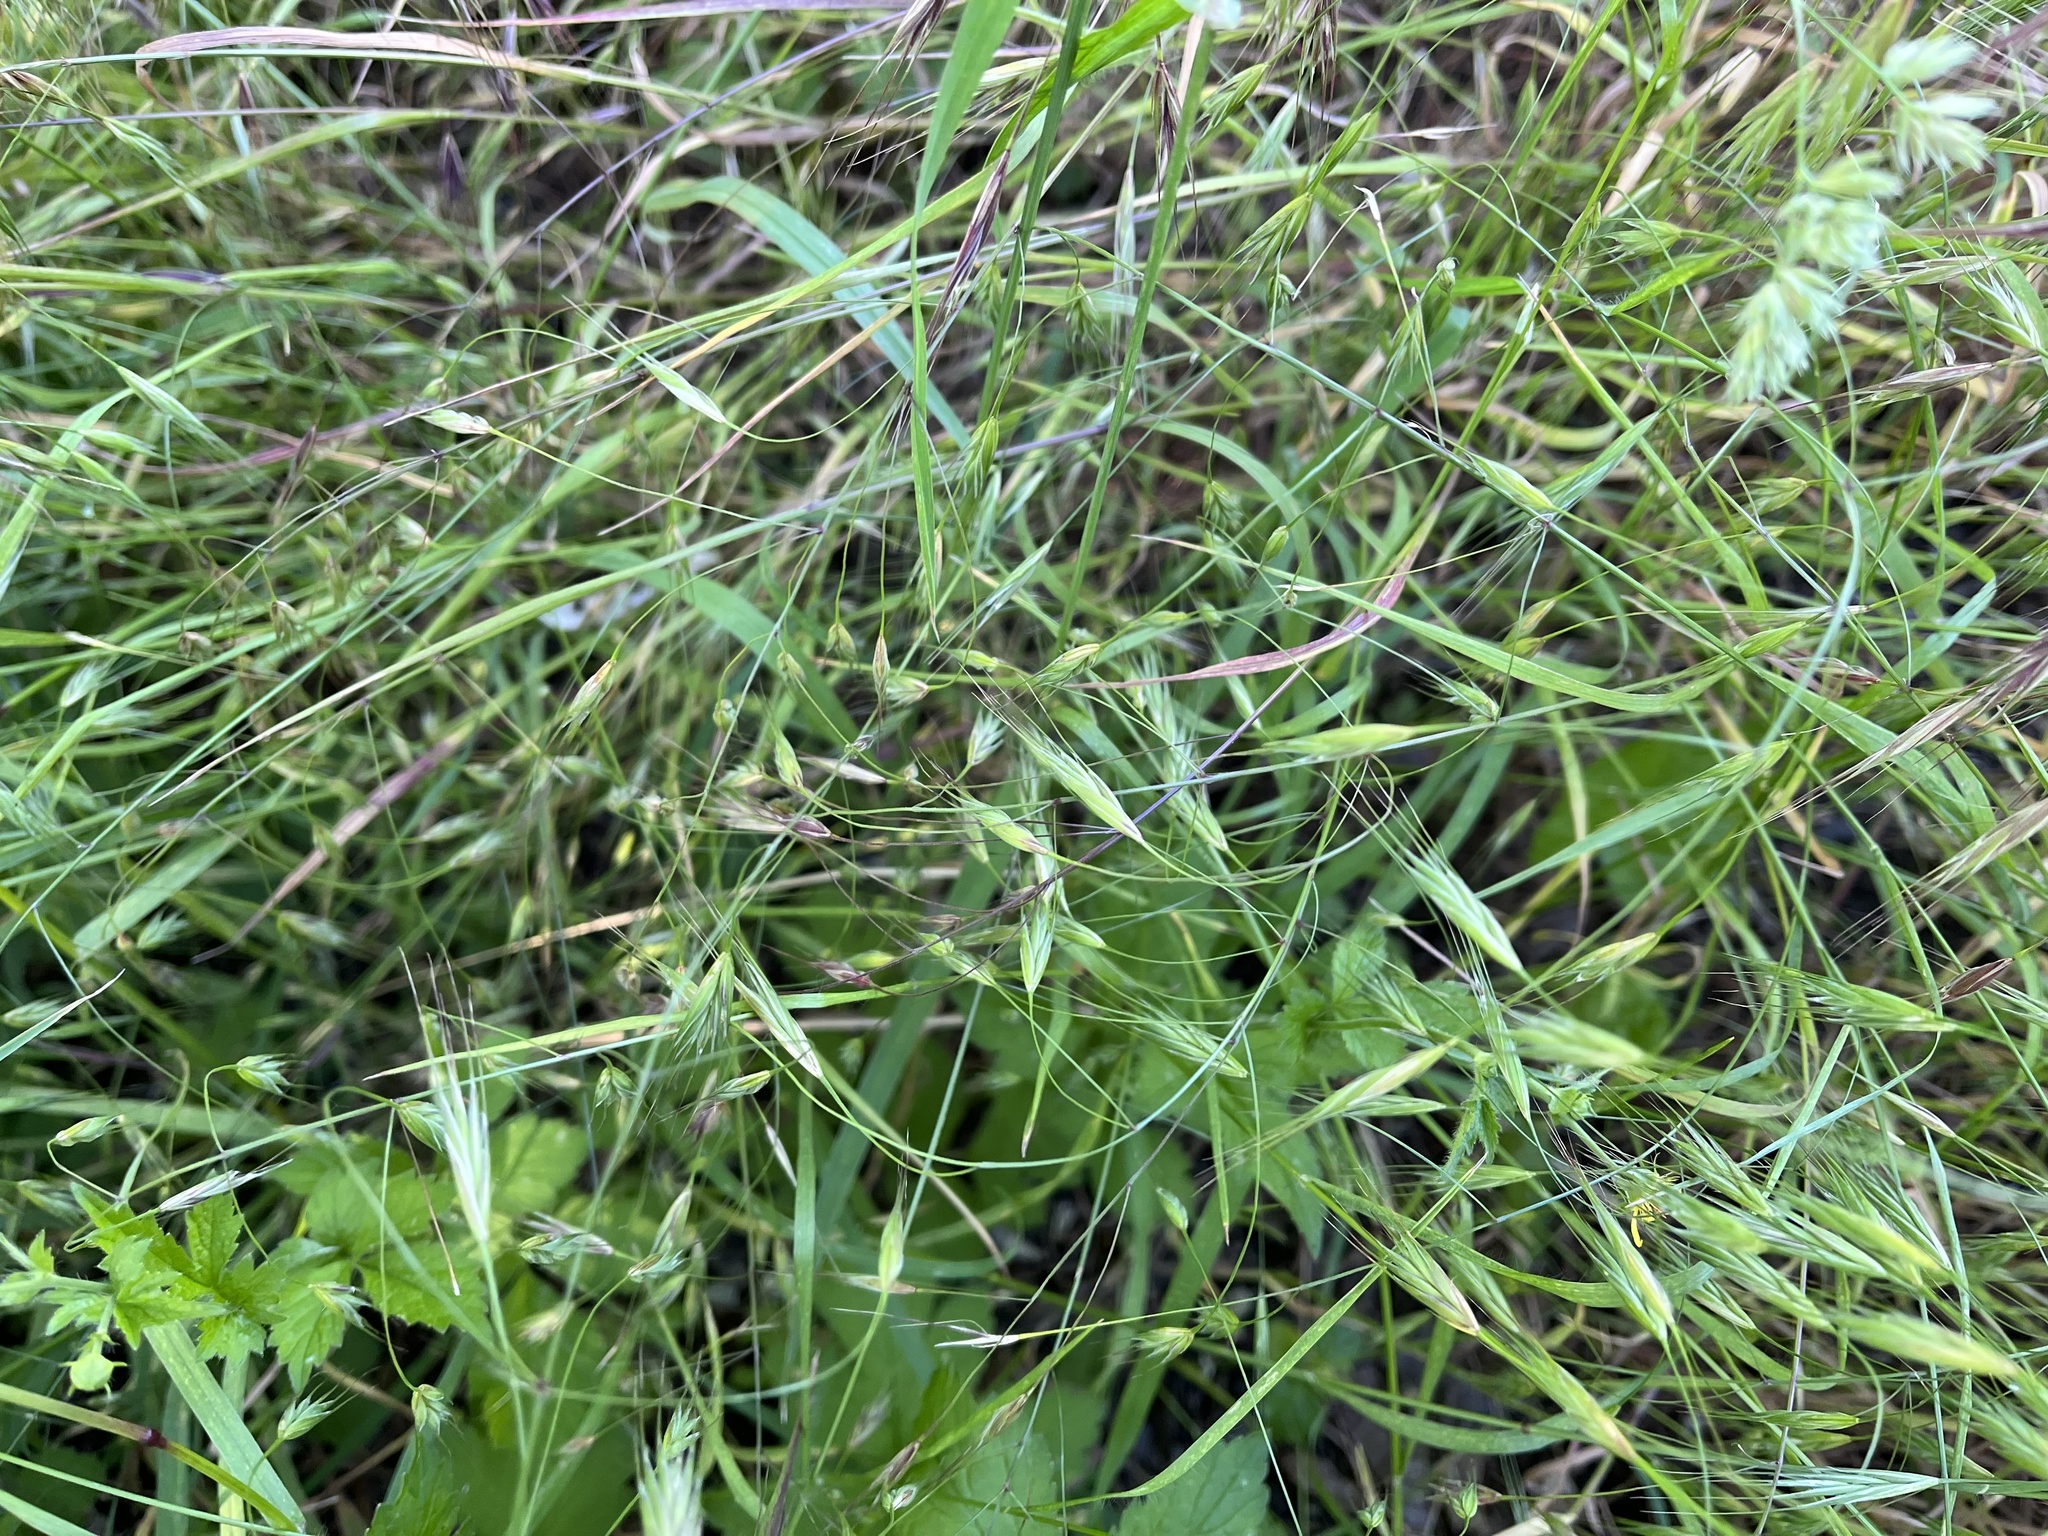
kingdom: Plantae
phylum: Tracheophyta
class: Liliopsida
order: Poales
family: Poaceae
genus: Bromus
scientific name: Bromus sterilis
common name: Poverty brome
